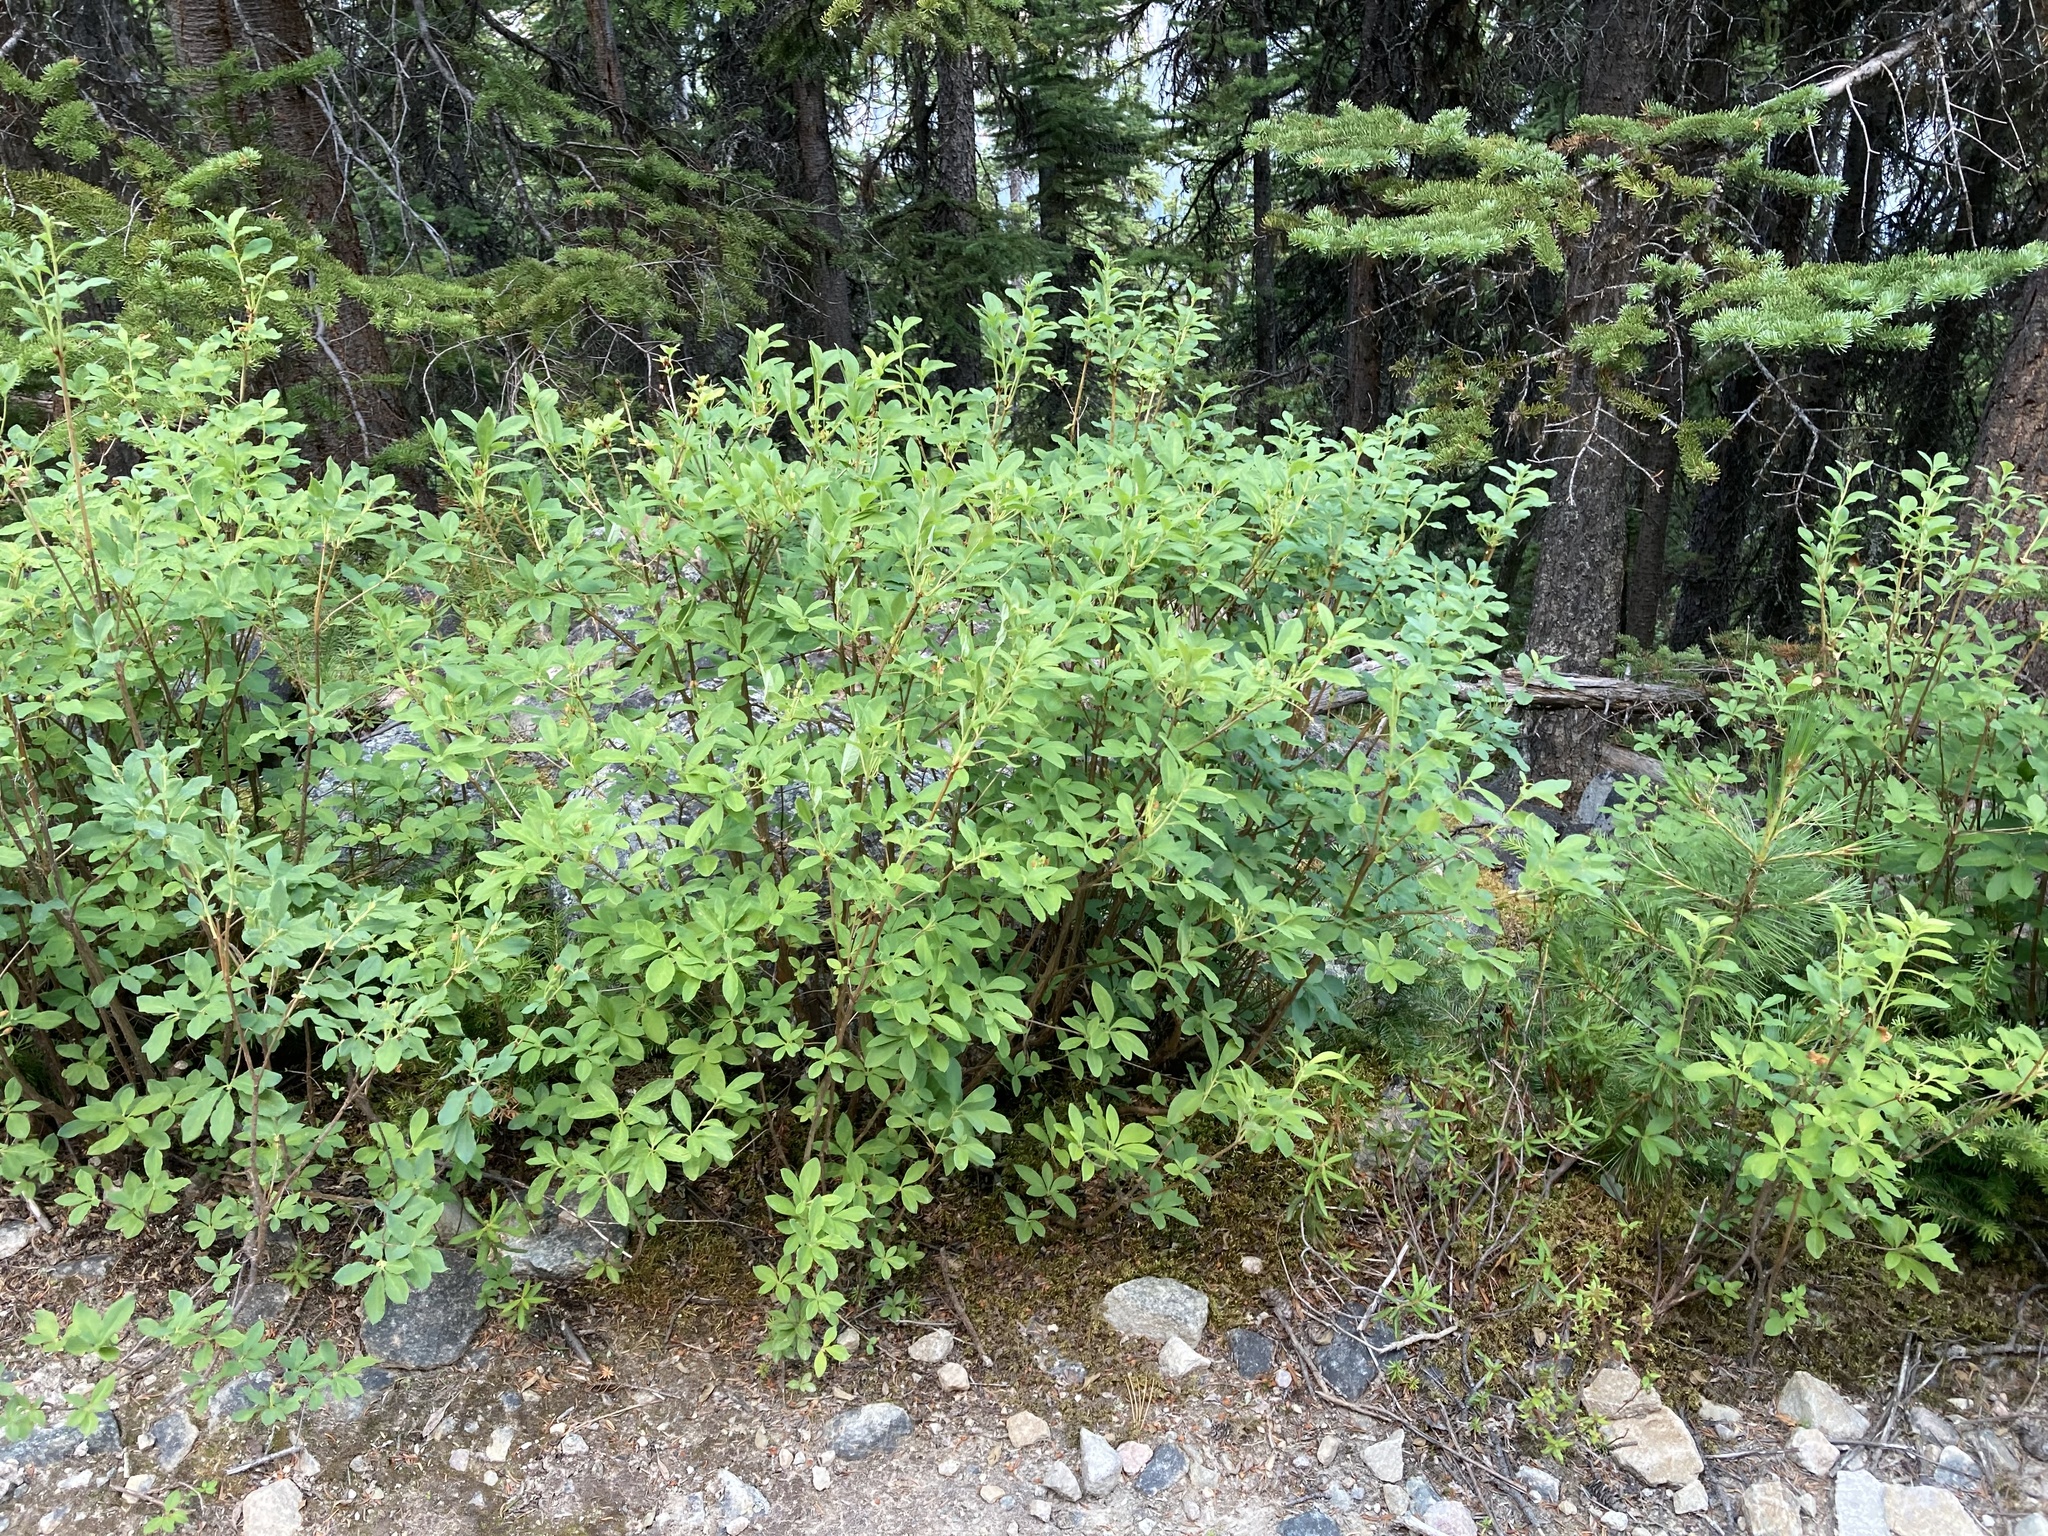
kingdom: Plantae
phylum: Tracheophyta
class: Magnoliopsida
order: Ericales
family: Ericaceae
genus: Rhododendron
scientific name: Rhododendron menziesii
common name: Pacific menziesia
